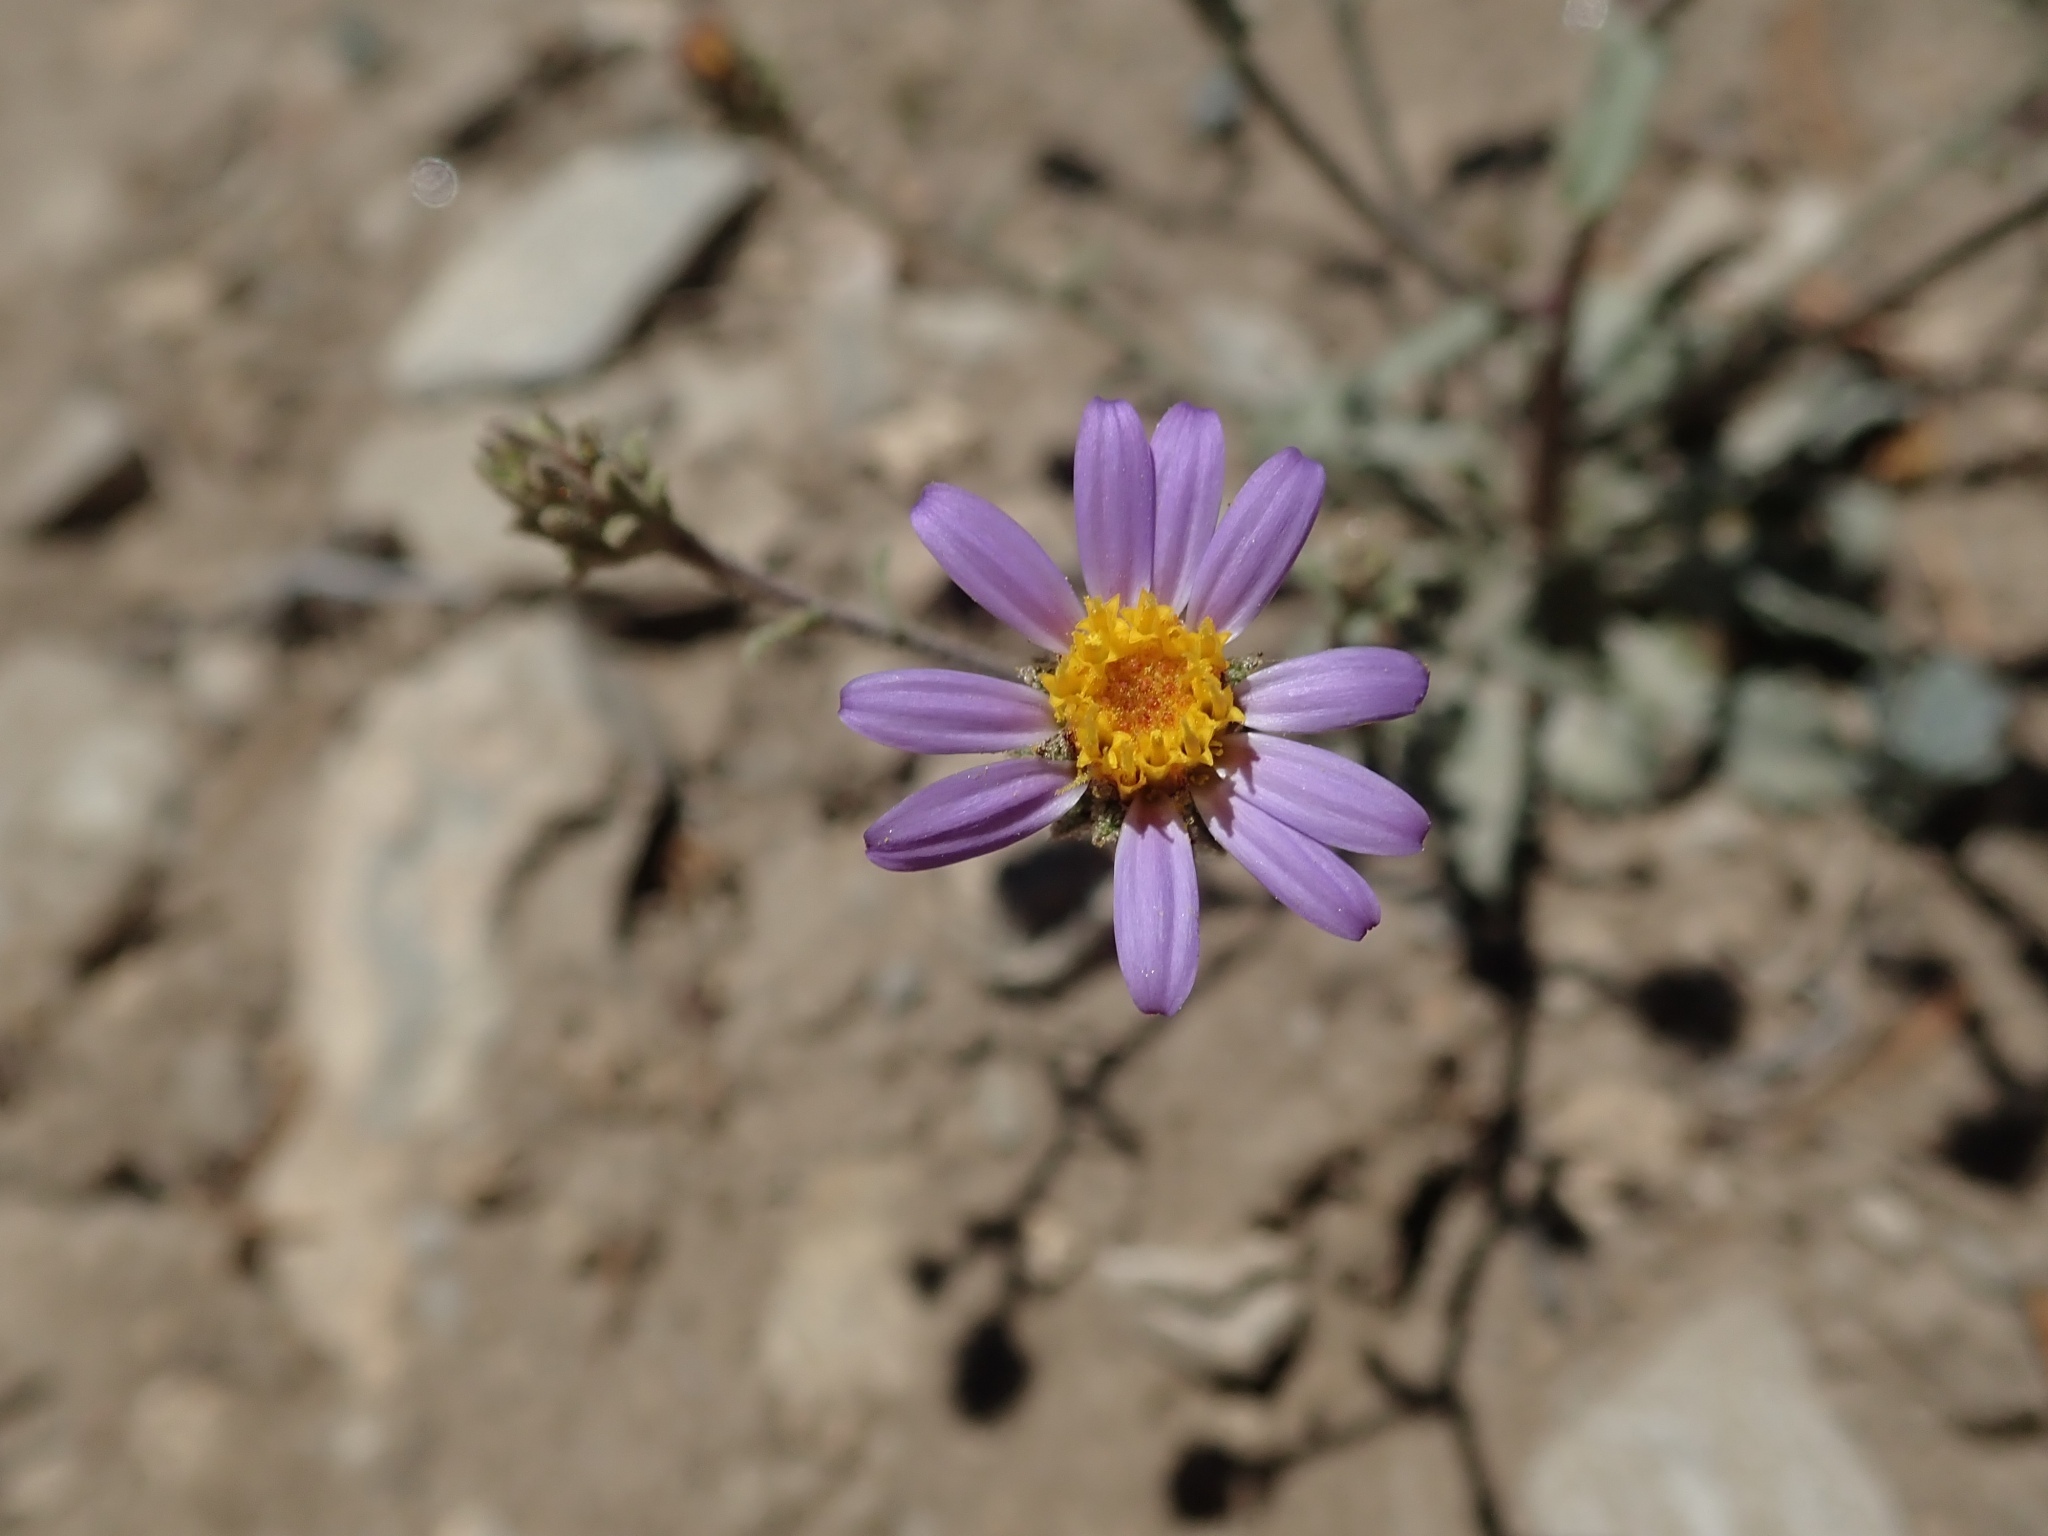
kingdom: Plantae
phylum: Tracheophyta
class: Magnoliopsida
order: Asterales
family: Asteraceae
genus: Dieteria
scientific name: Dieteria canescens
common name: Hoary-aster
